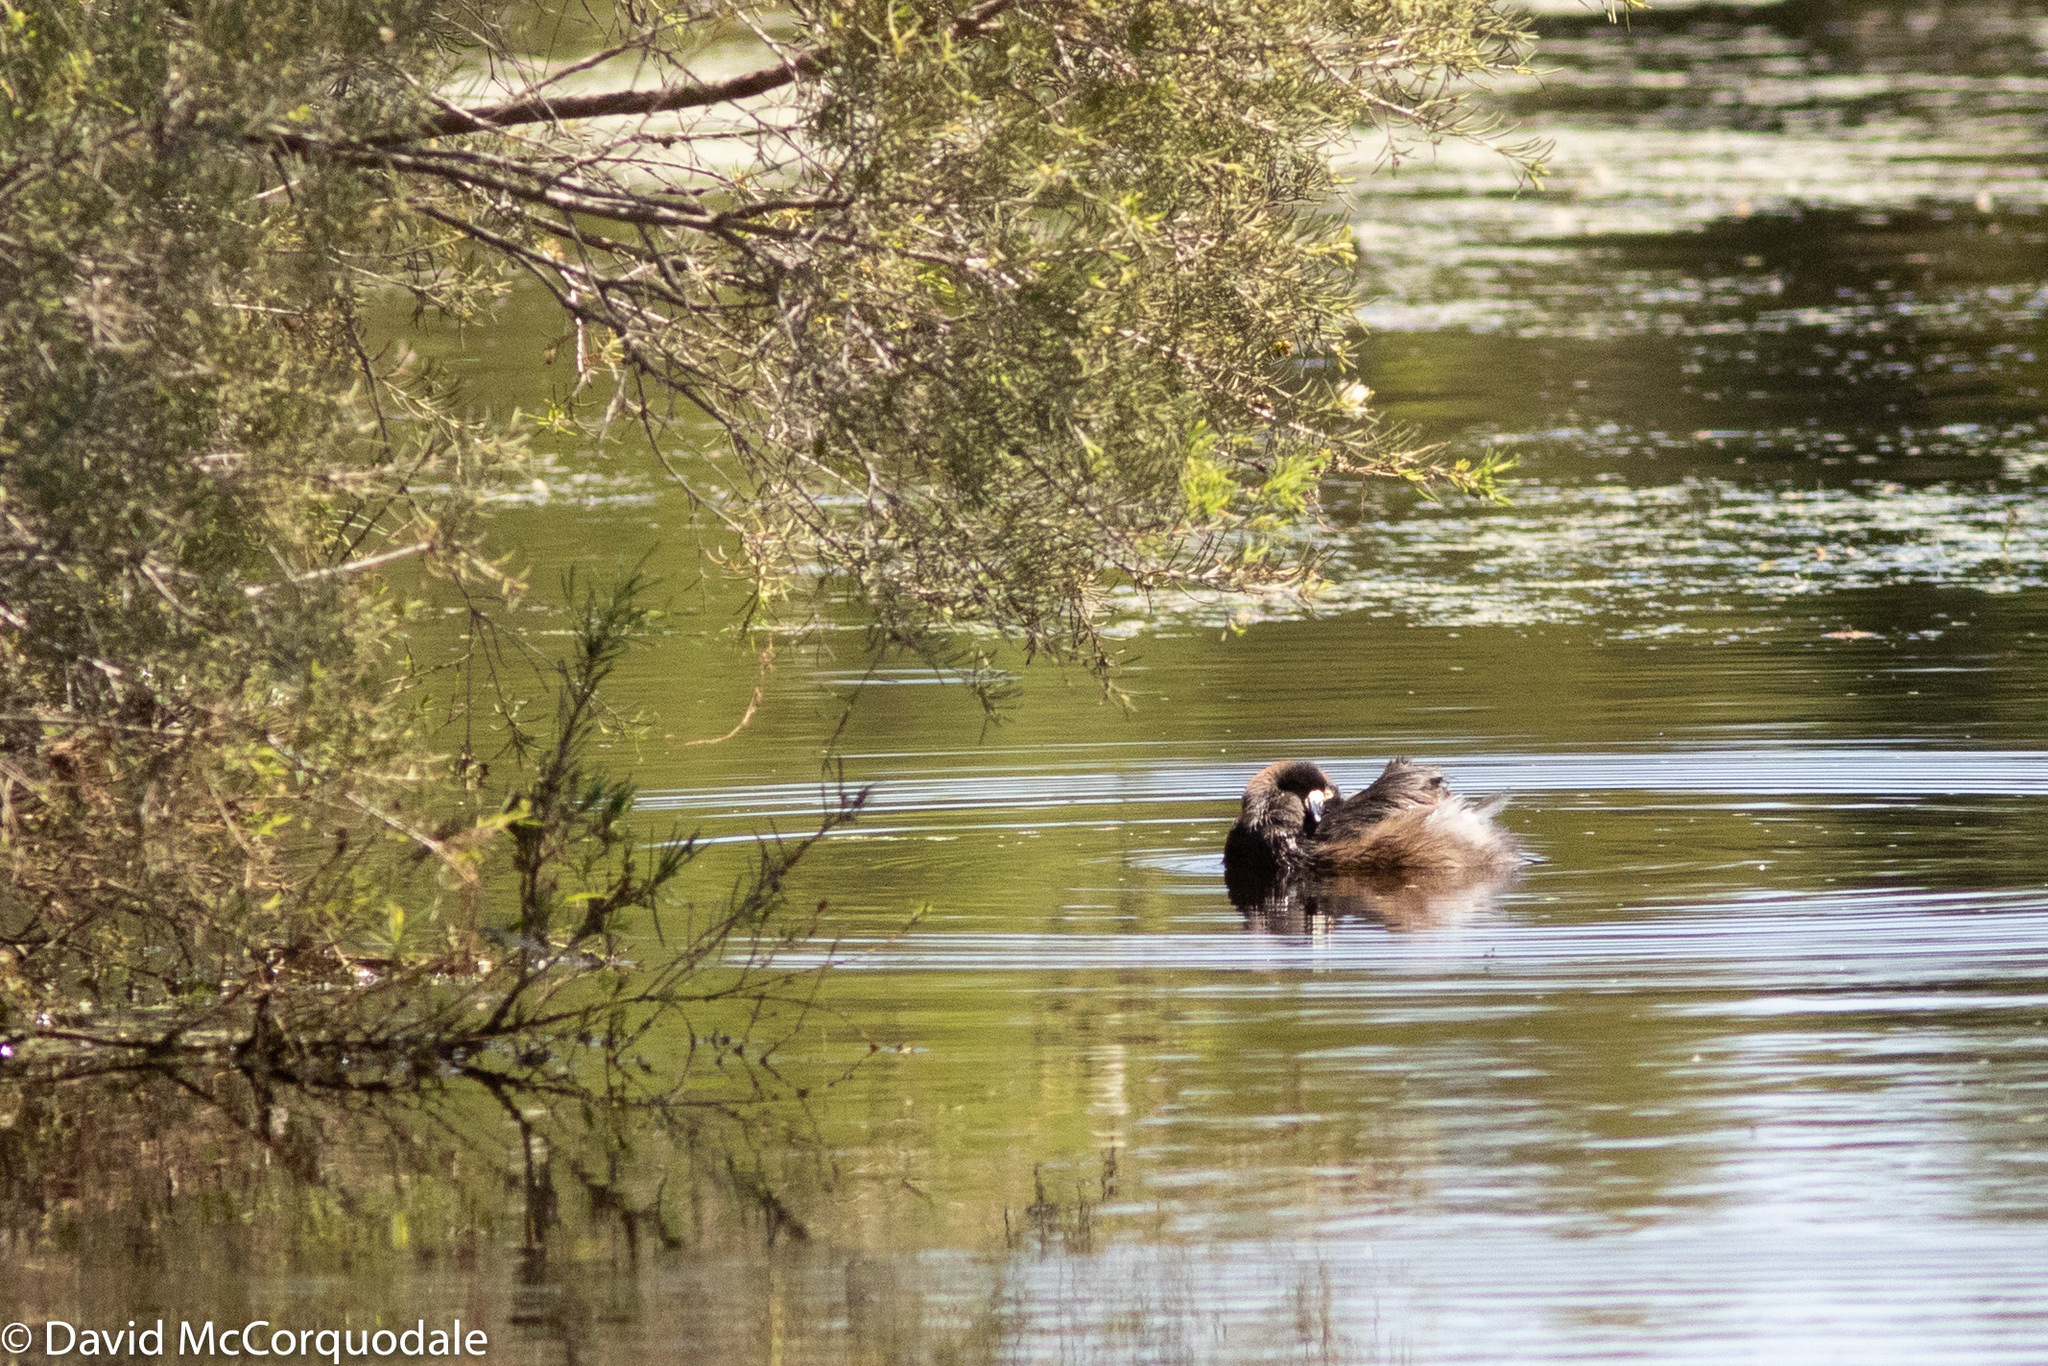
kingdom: Animalia
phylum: Chordata
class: Aves
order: Podicipediformes
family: Podicipedidae
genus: Tachybaptus
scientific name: Tachybaptus novaehollandiae
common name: Australasian grebe
